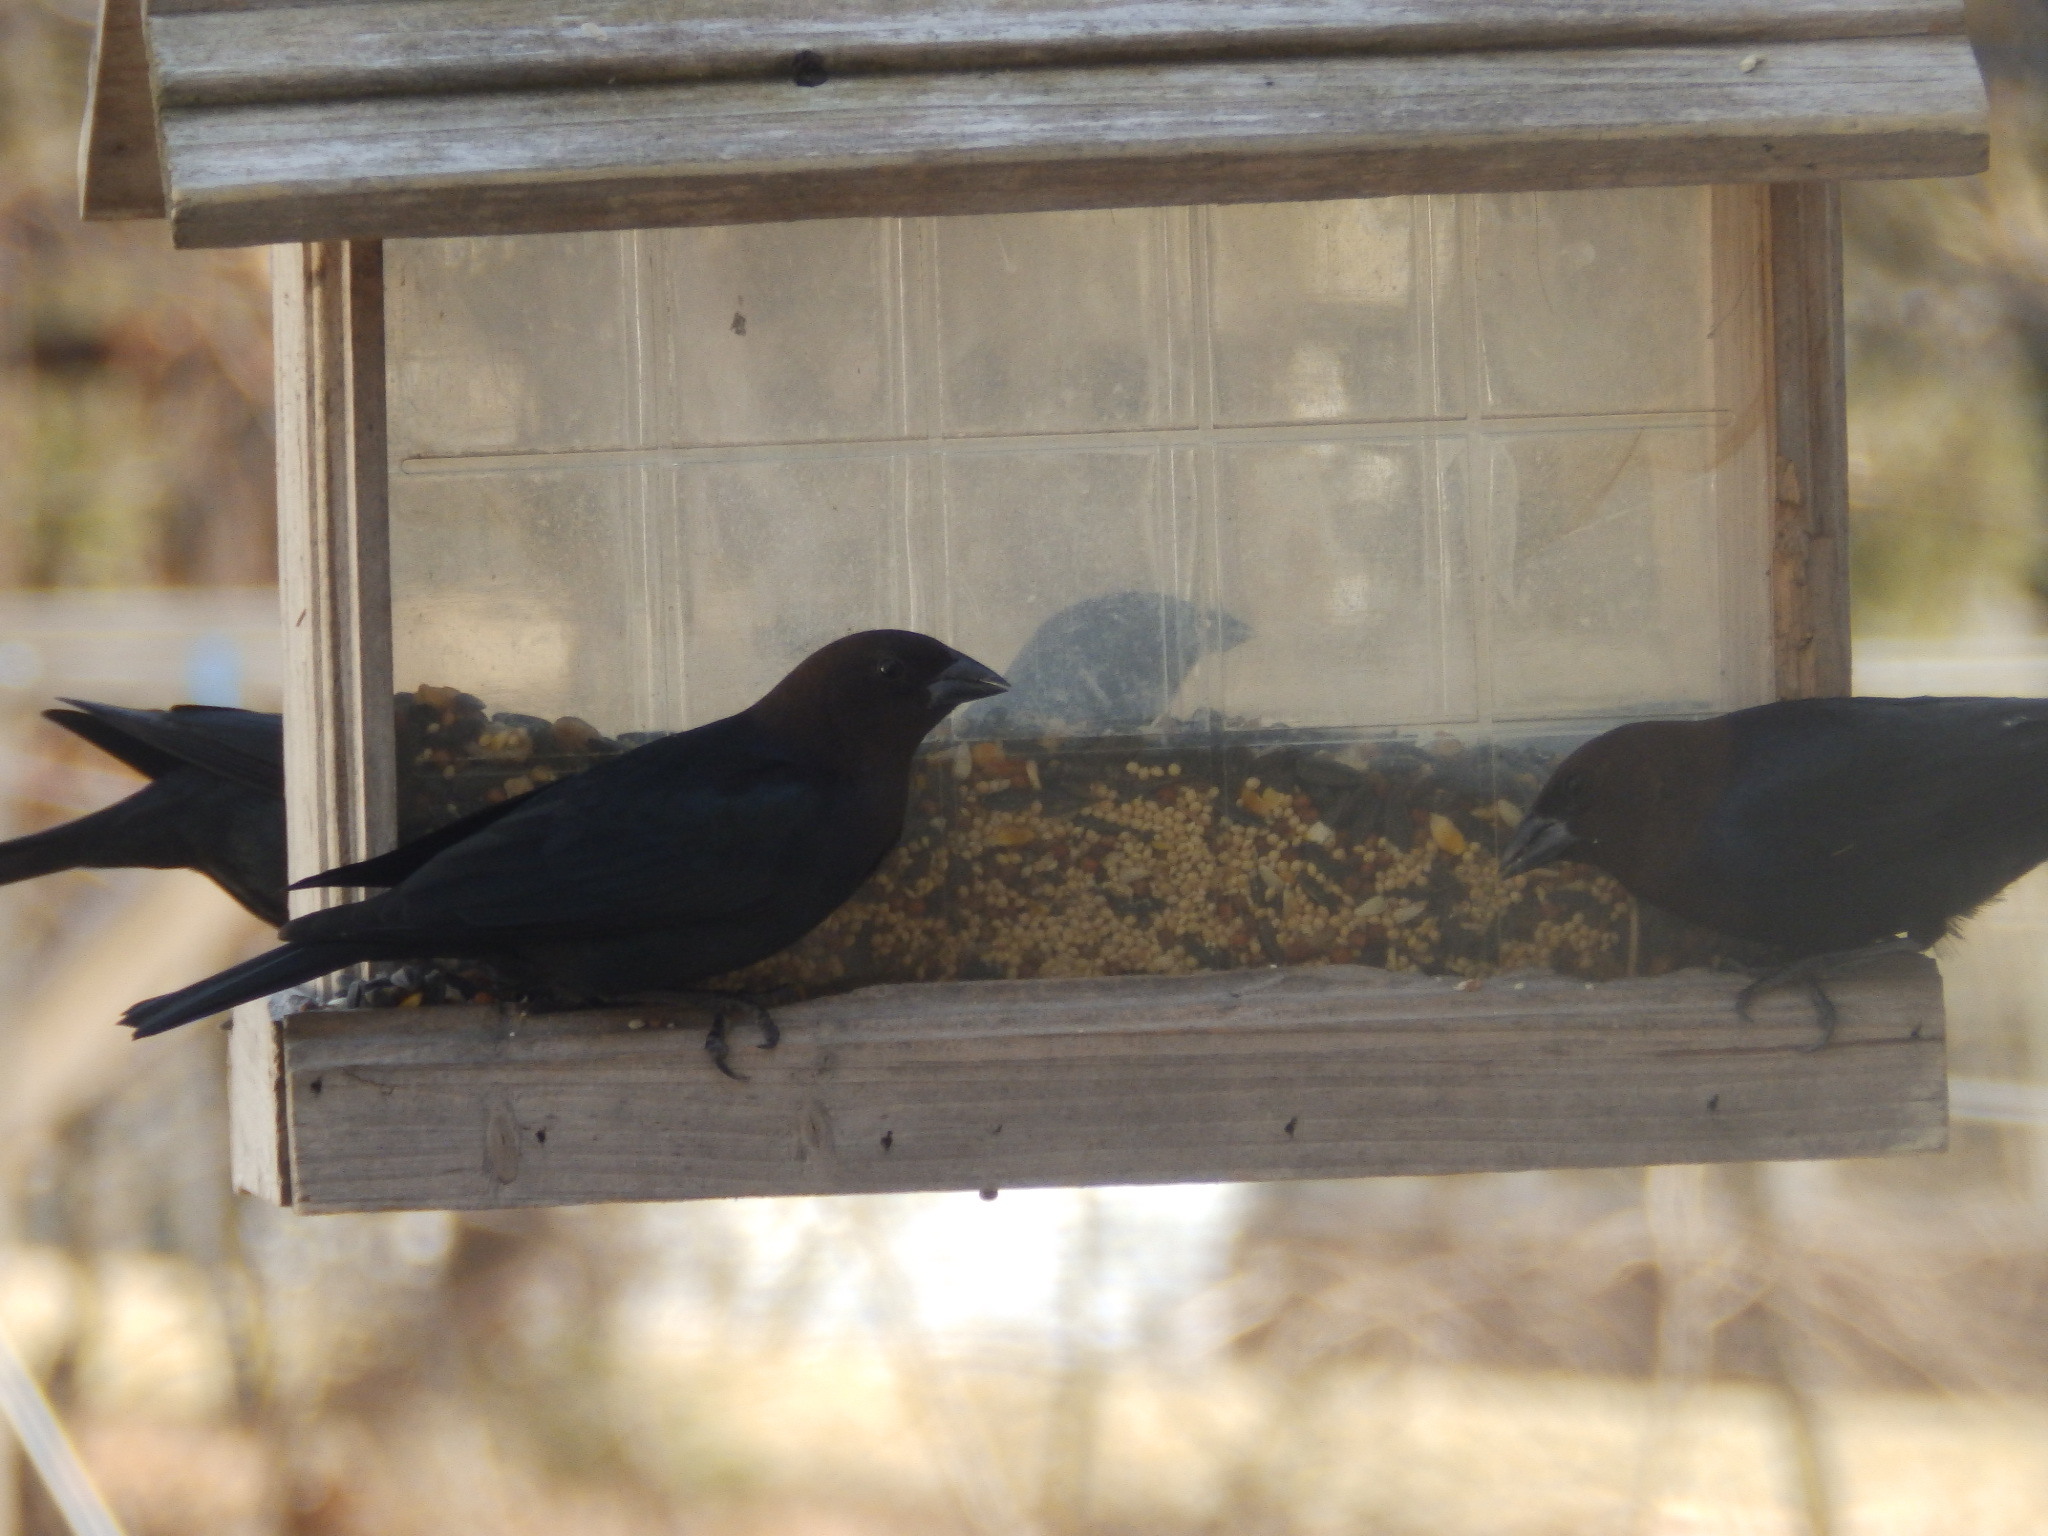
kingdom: Animalia
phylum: Chordata
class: Aves
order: Passeriformes
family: Icteridae
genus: Molothrus
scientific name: Molothrus ater
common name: Brown-headed cowbird
